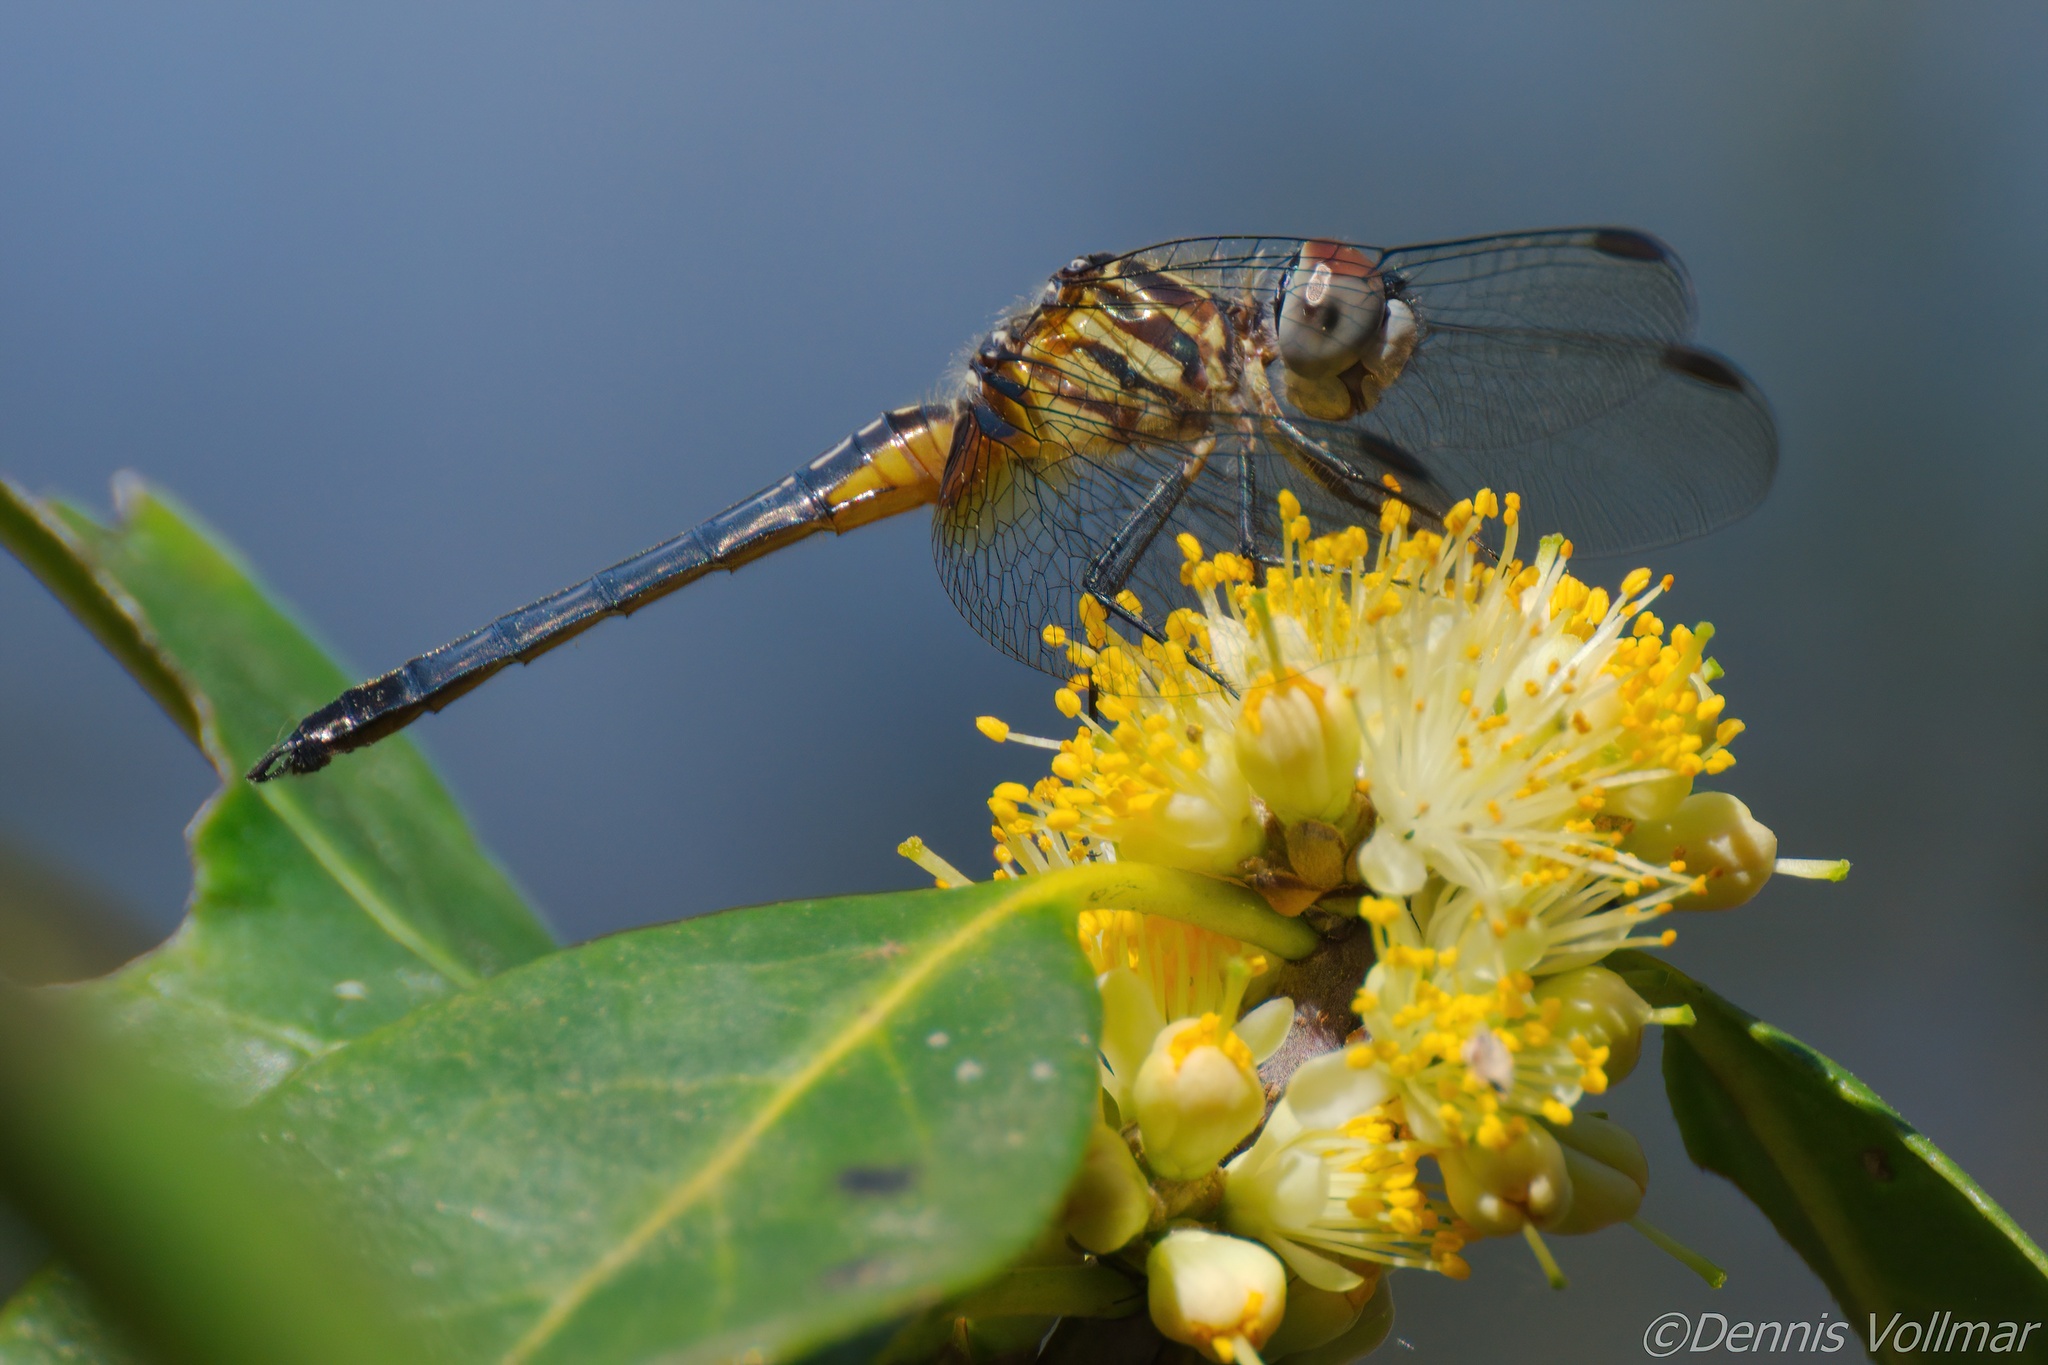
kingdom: Animalia
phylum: Arthropoda
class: Insecta
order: Odonata
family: Libellulidae
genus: Pachydiplax
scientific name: Pachydiplax longipennis
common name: Blue dasher
